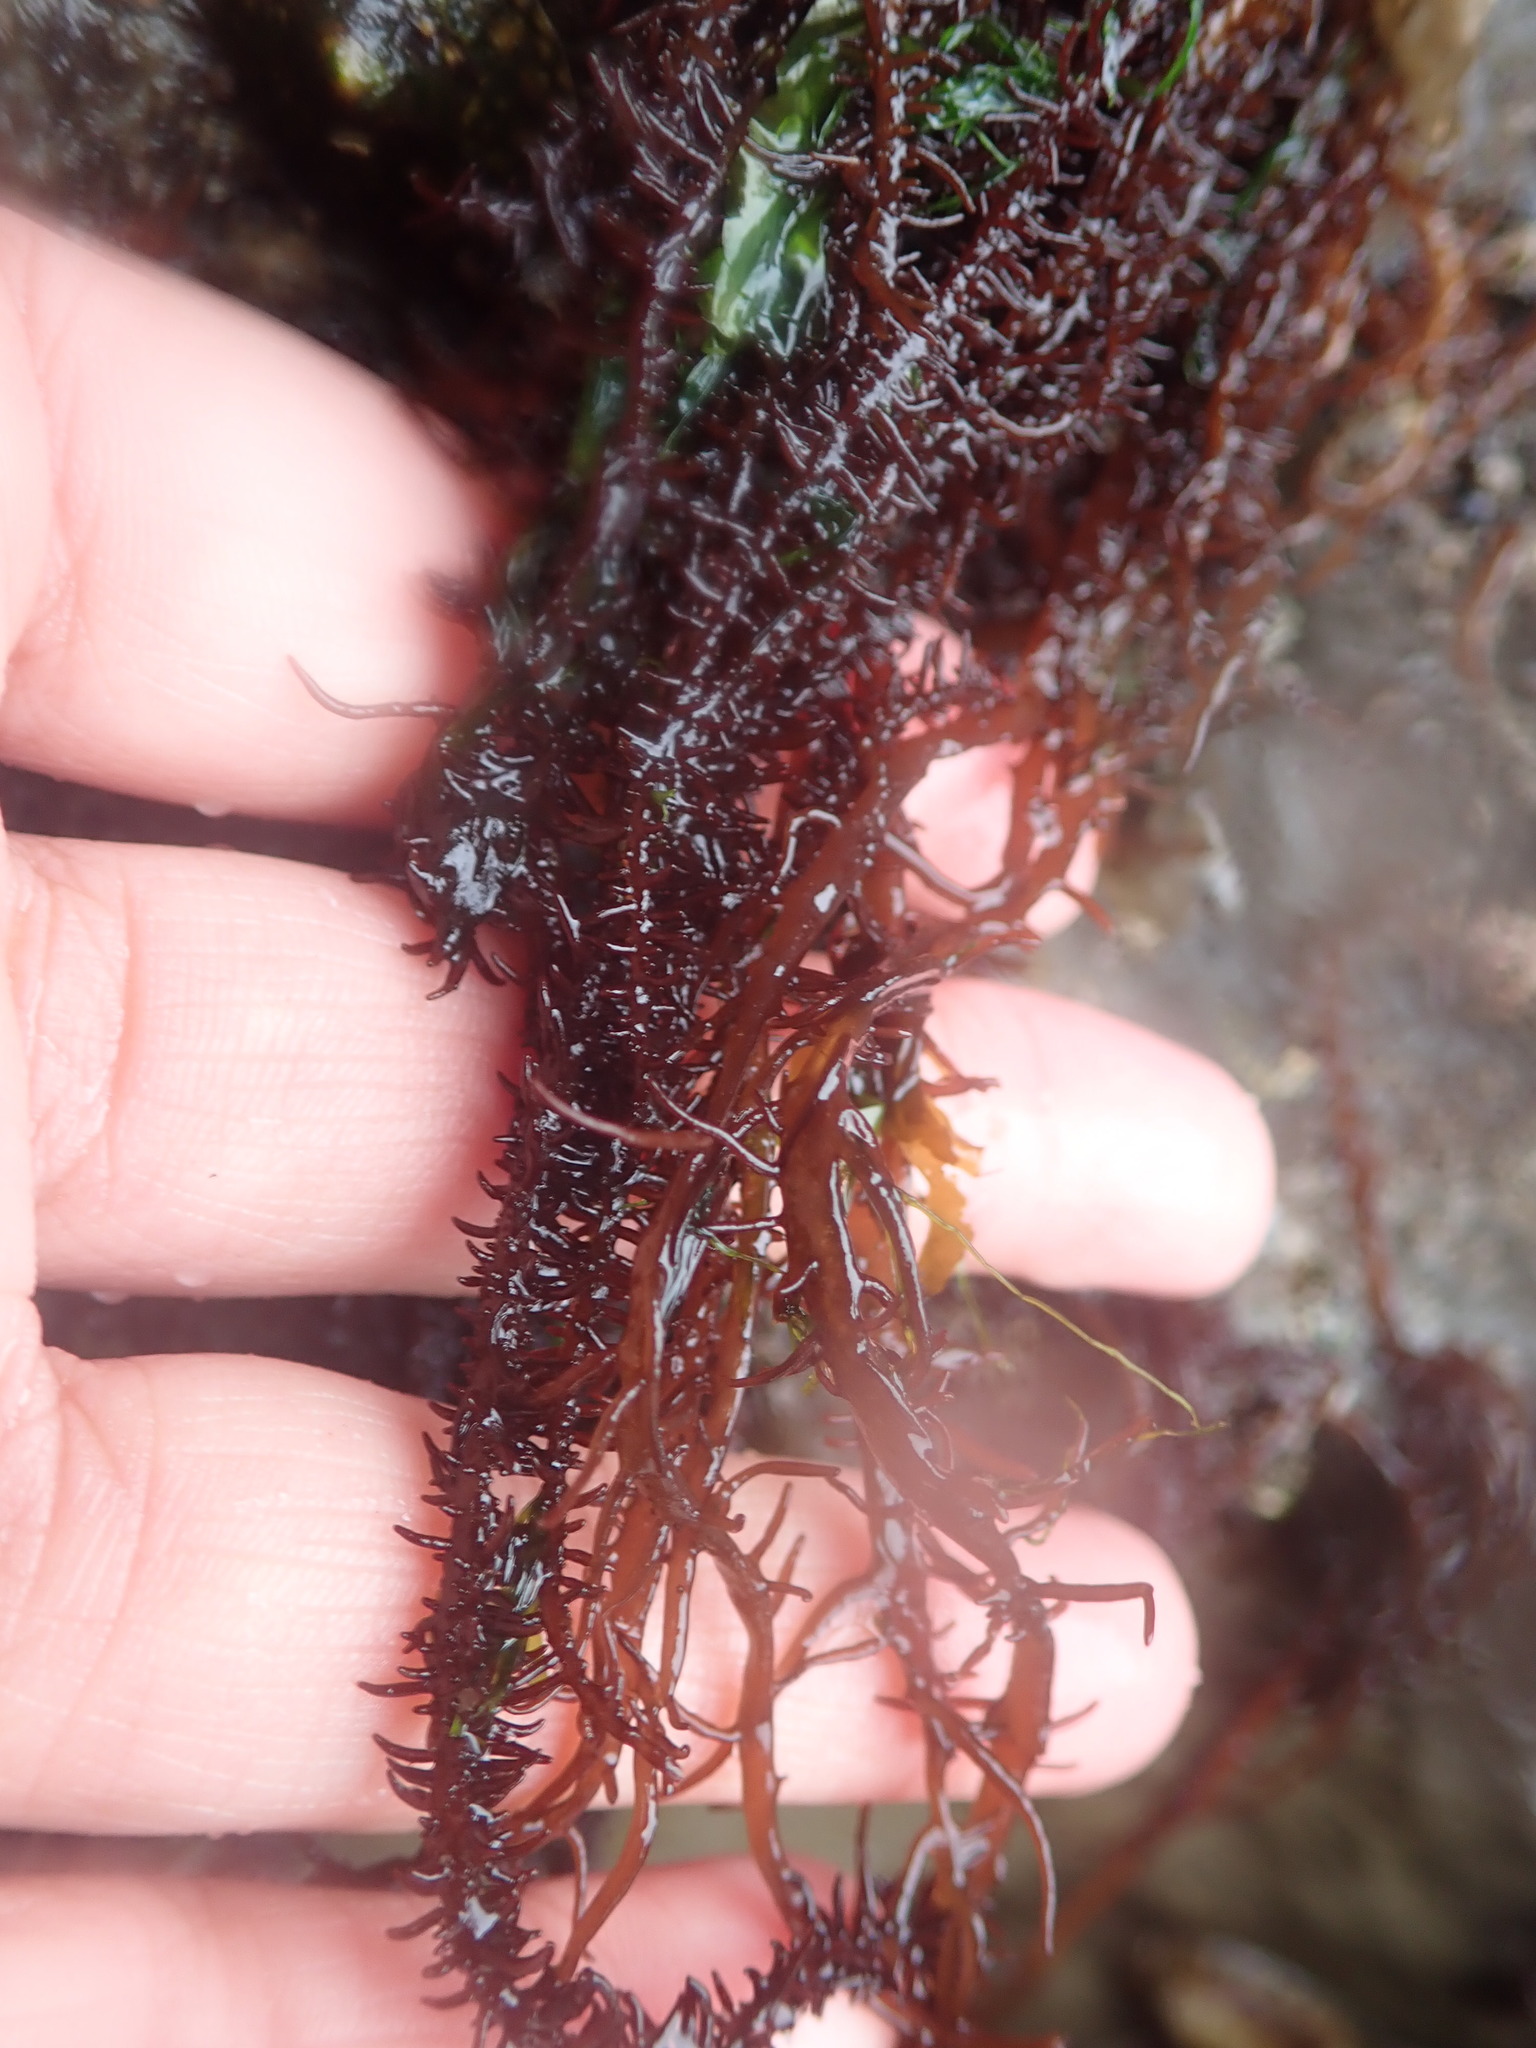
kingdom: Plantae
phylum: Rhodophyta
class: Florideophyceae
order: Nemaliales
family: Liagoraceae
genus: Cumagloia
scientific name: Cumagloia andersonii
